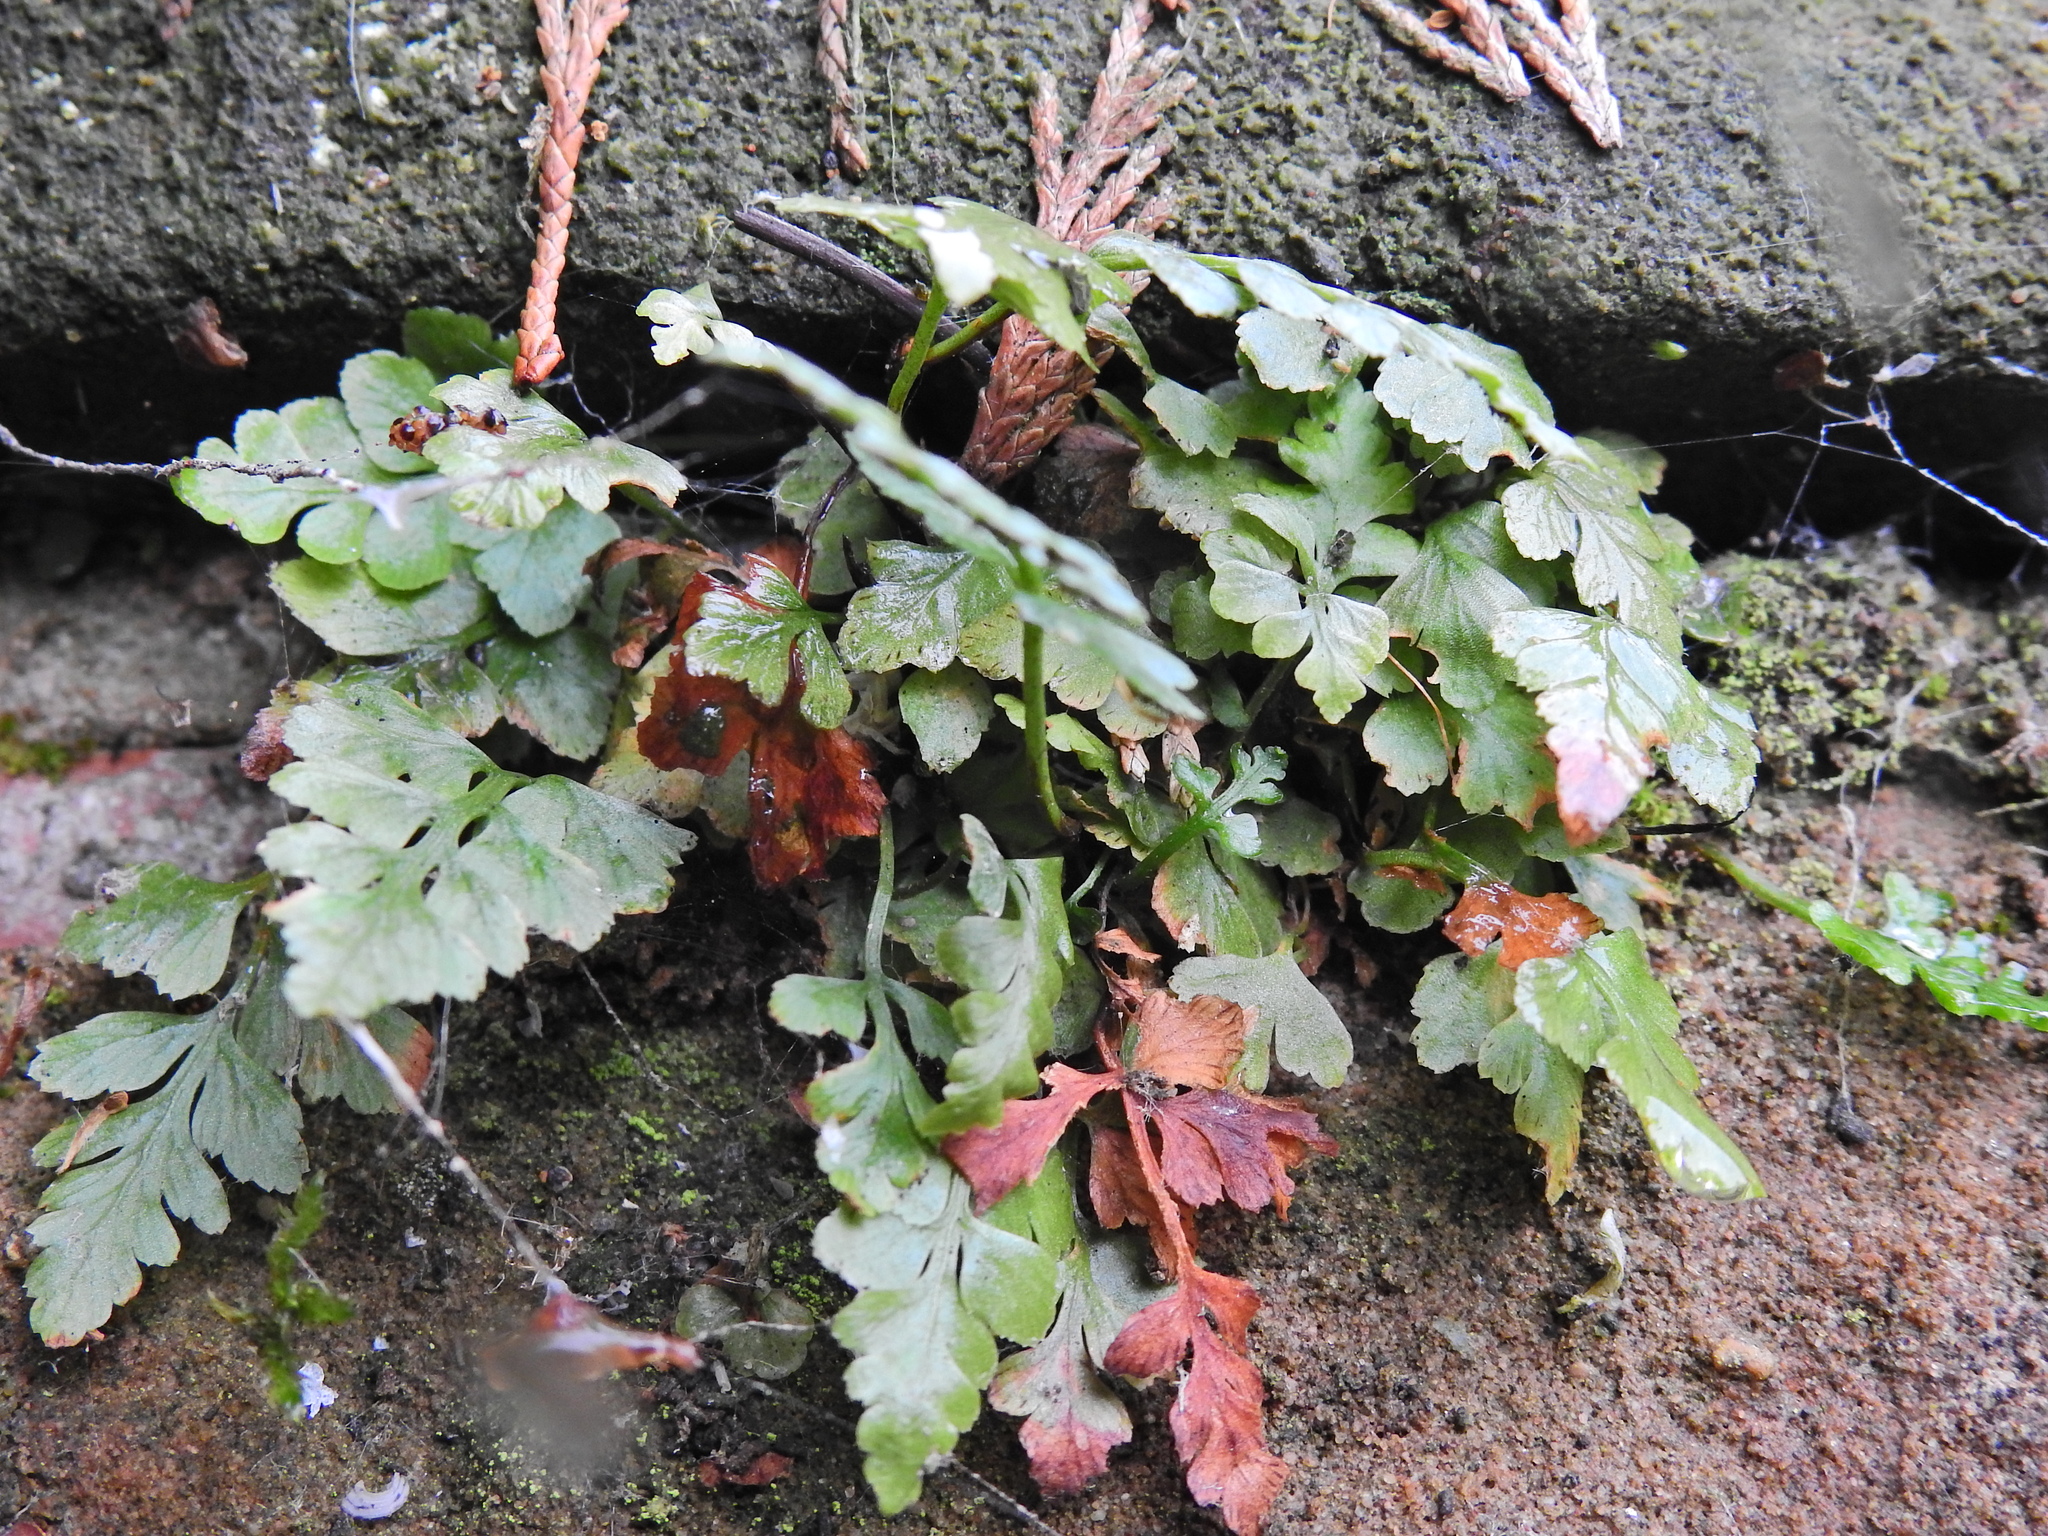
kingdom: Plantae
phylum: Tracheophyta
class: Polypodiopsida
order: Polypodiales
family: Aspleniaceae
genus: Asplenium
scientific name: Asplenium adiantum-nigrum
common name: Black spleenwort
